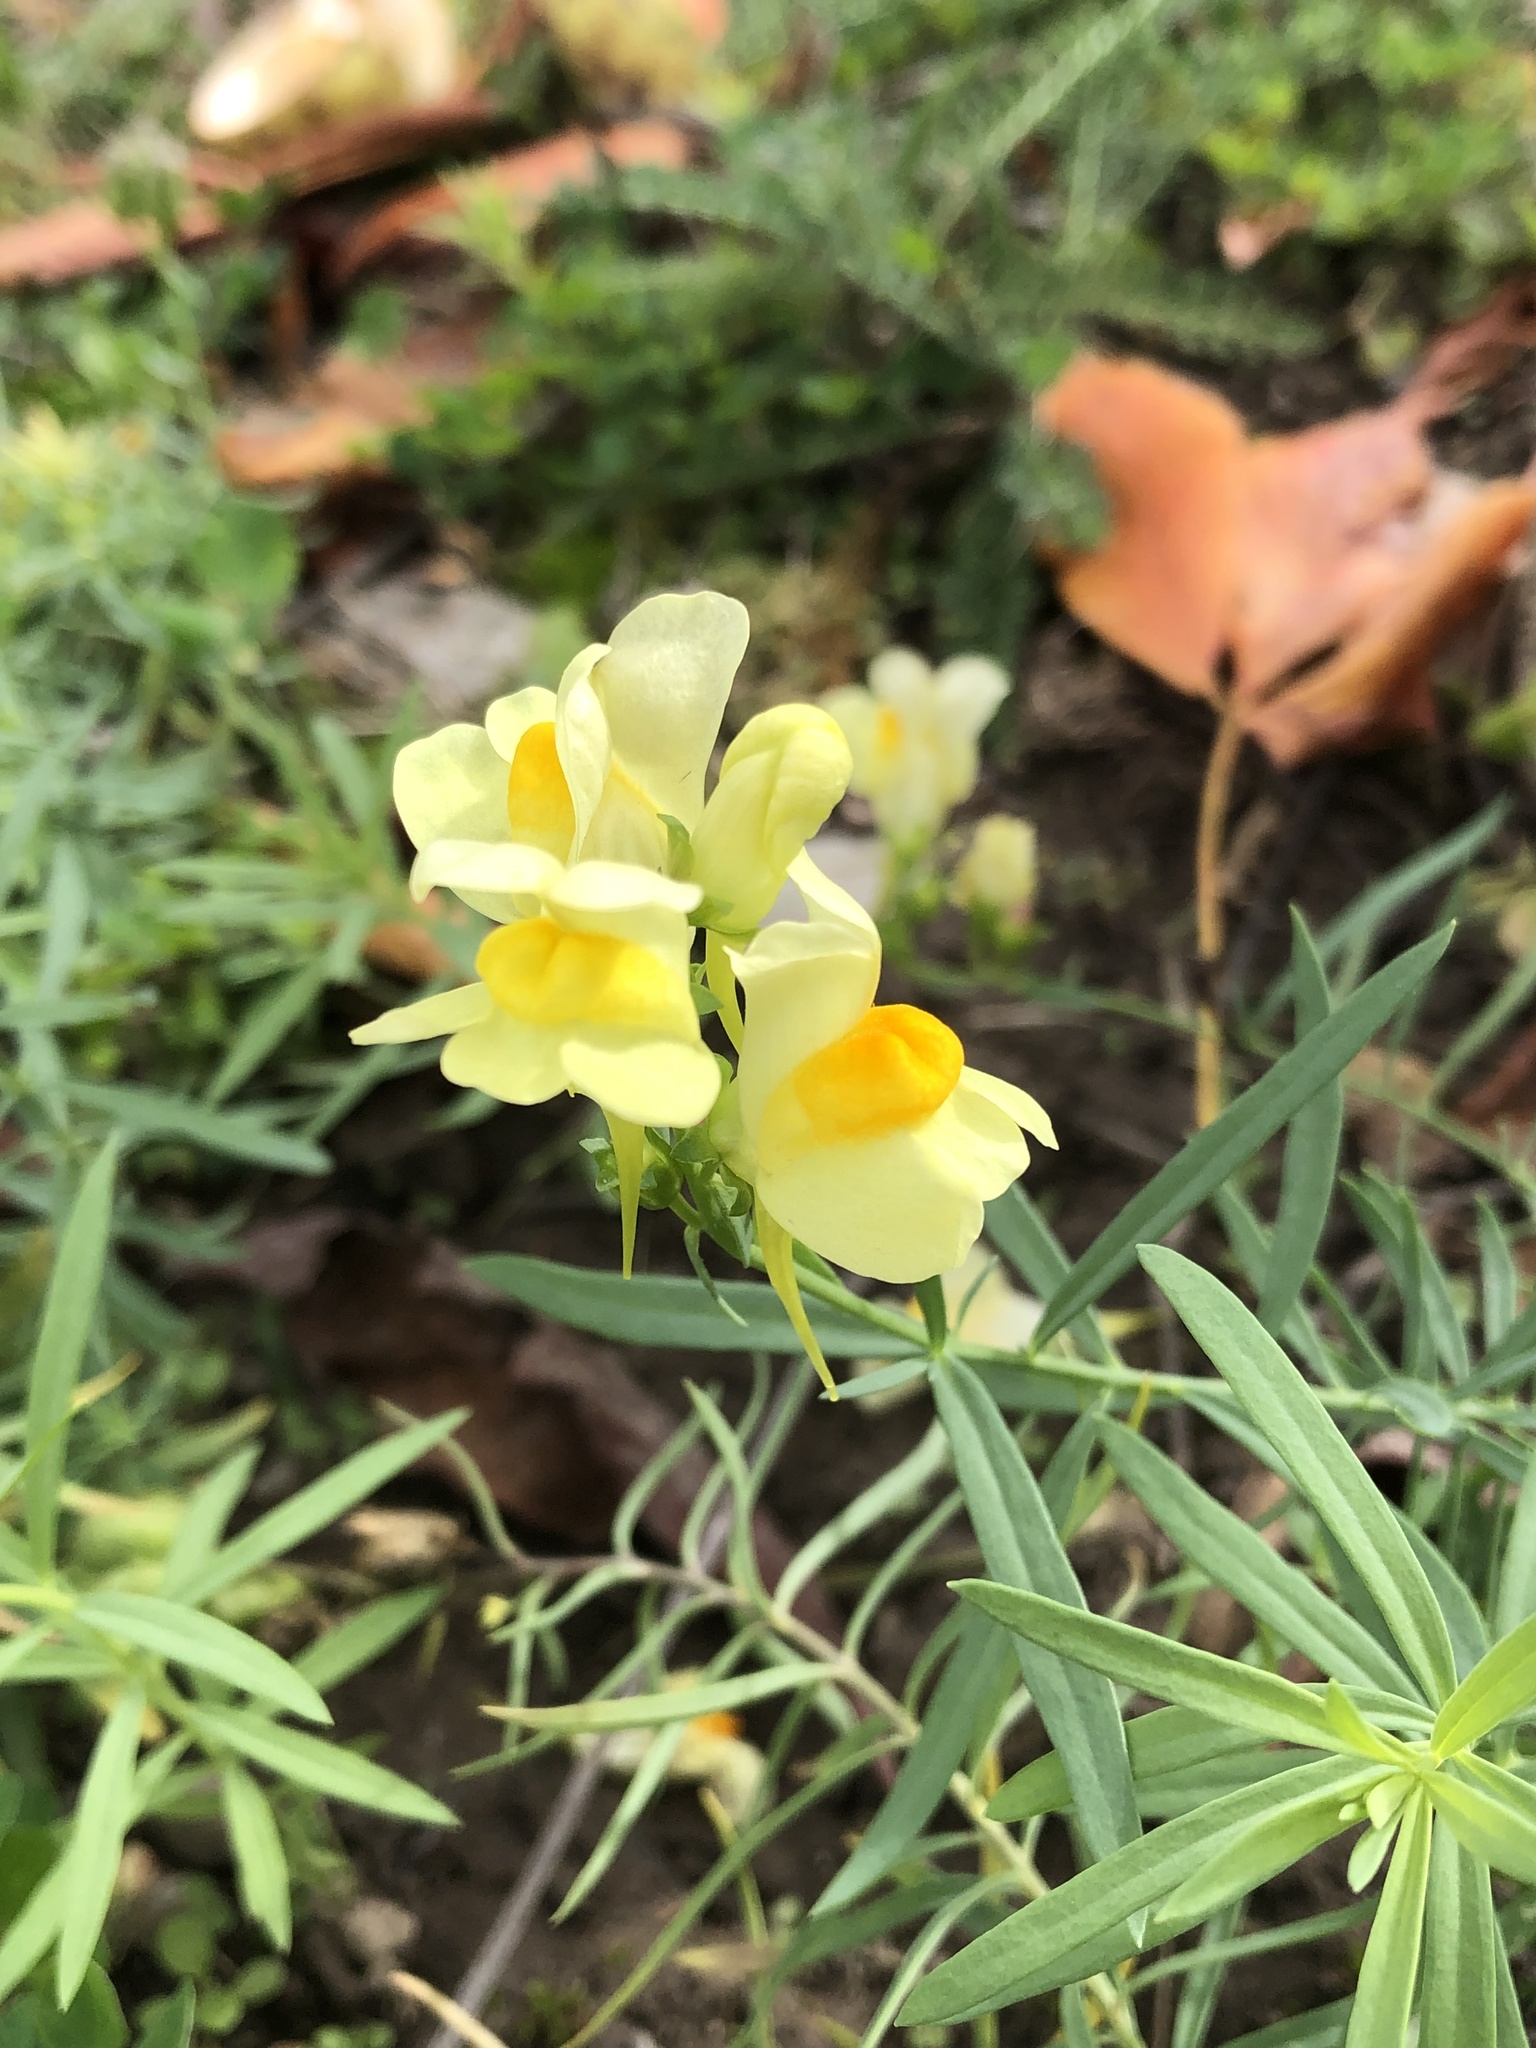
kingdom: Plantae
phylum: Tracheophyta
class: Magnoliopsida
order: Lamiales
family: Plantaginaceae
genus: Linaria
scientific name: Linaria vulgaris
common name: Butter and eggs
